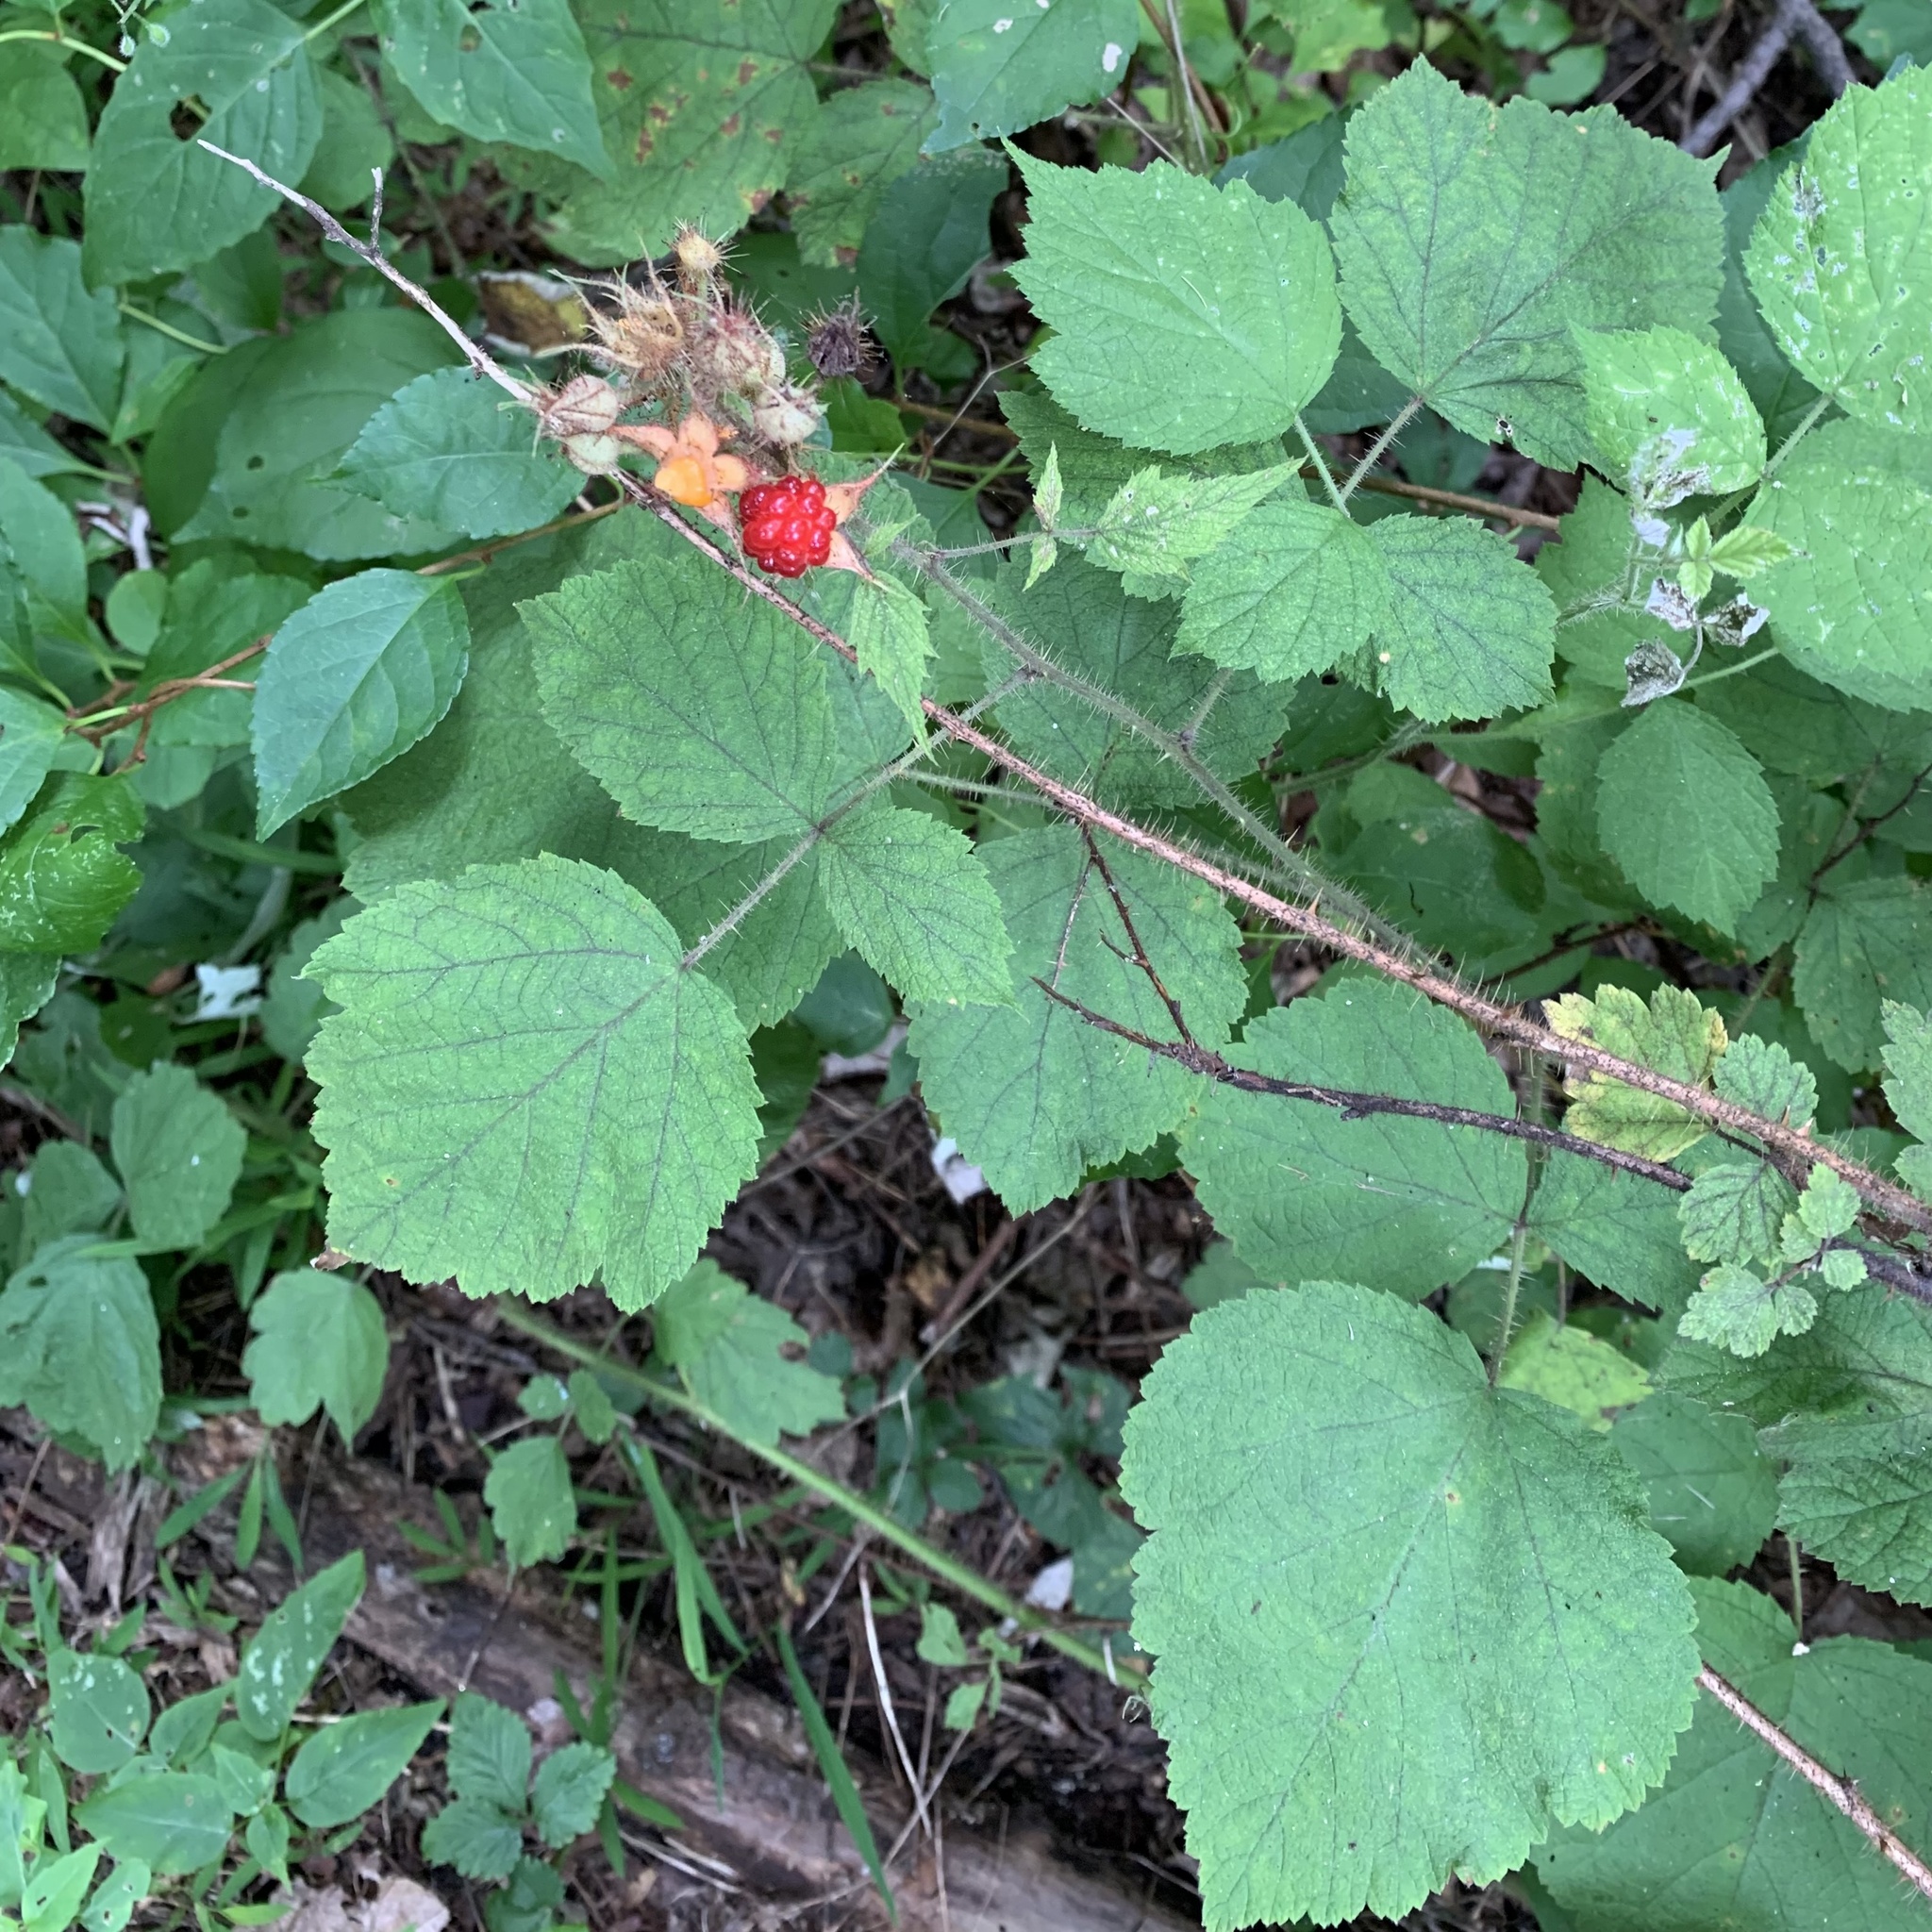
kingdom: Plantae
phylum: Tracheophyta
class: Magnoliopsida
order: Rosales
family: Rosaceae
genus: Rubus
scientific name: Rubus phoenicolasius
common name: Japanese wineberry
